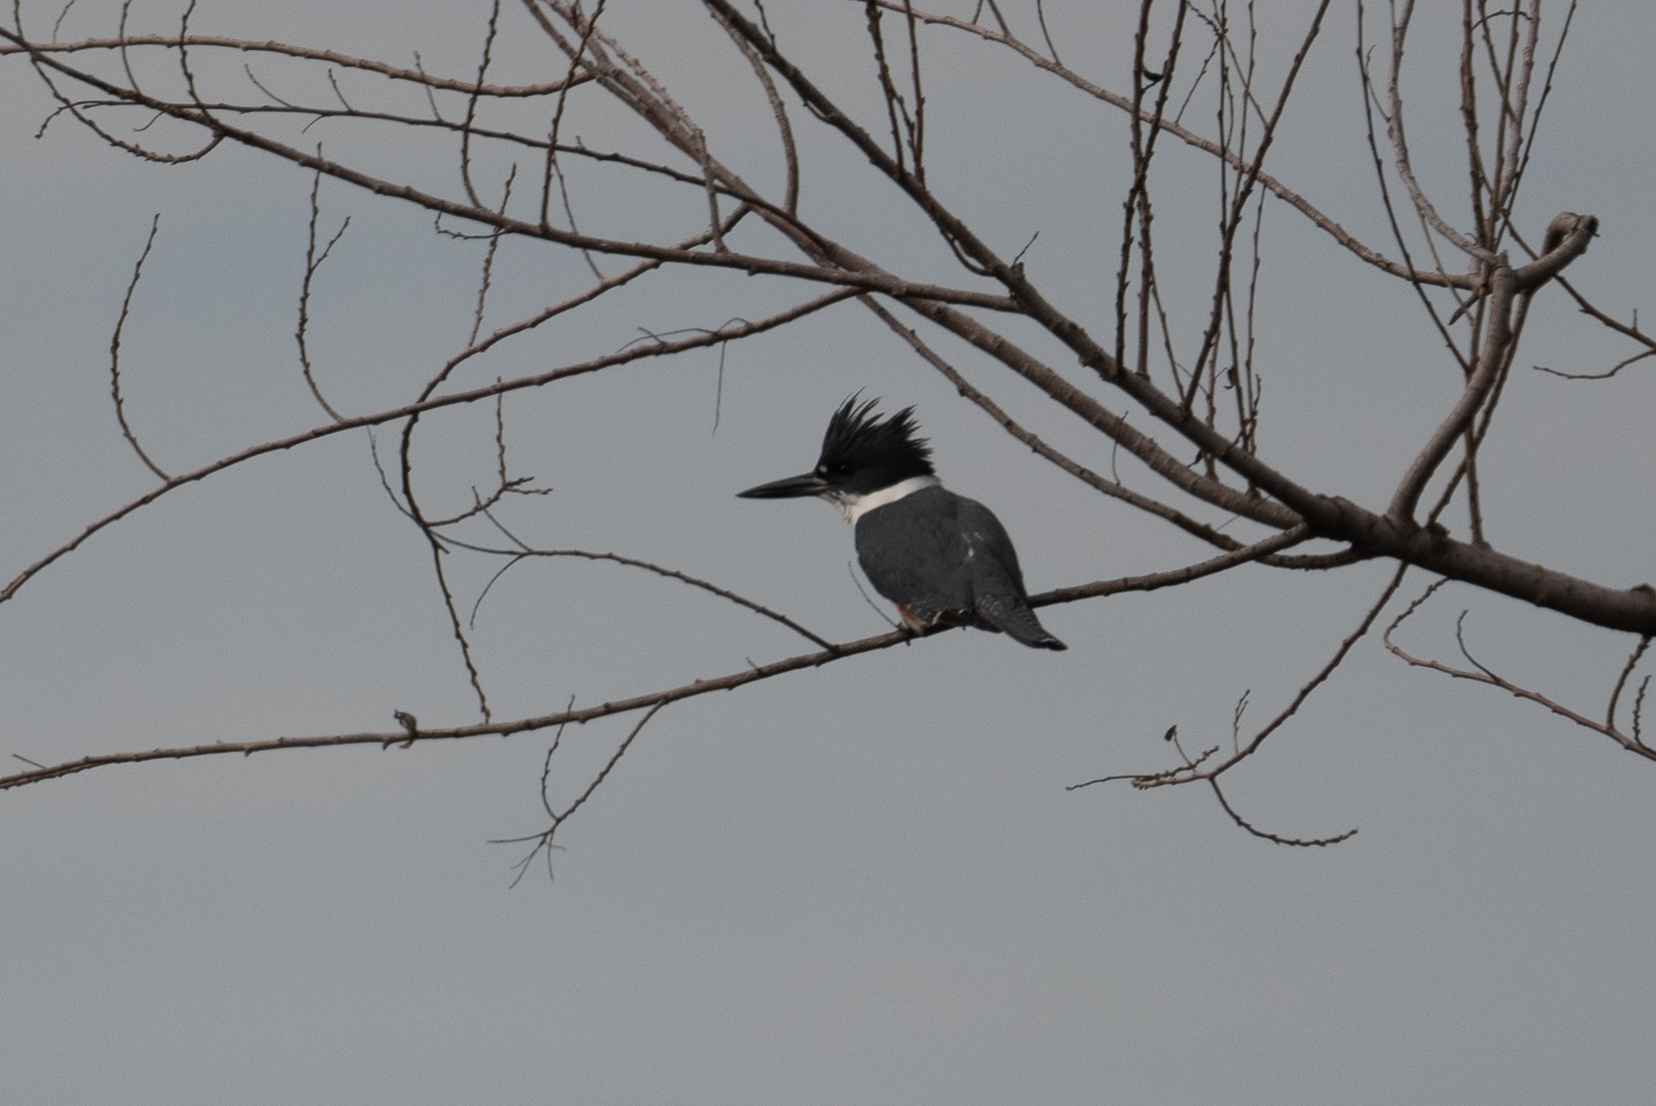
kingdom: Animalia
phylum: Chordata
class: Aves
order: Coraciiformes
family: Alcedinidae
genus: Megaceryle
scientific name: Megaceryle alcyon
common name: Belted kingfisher
